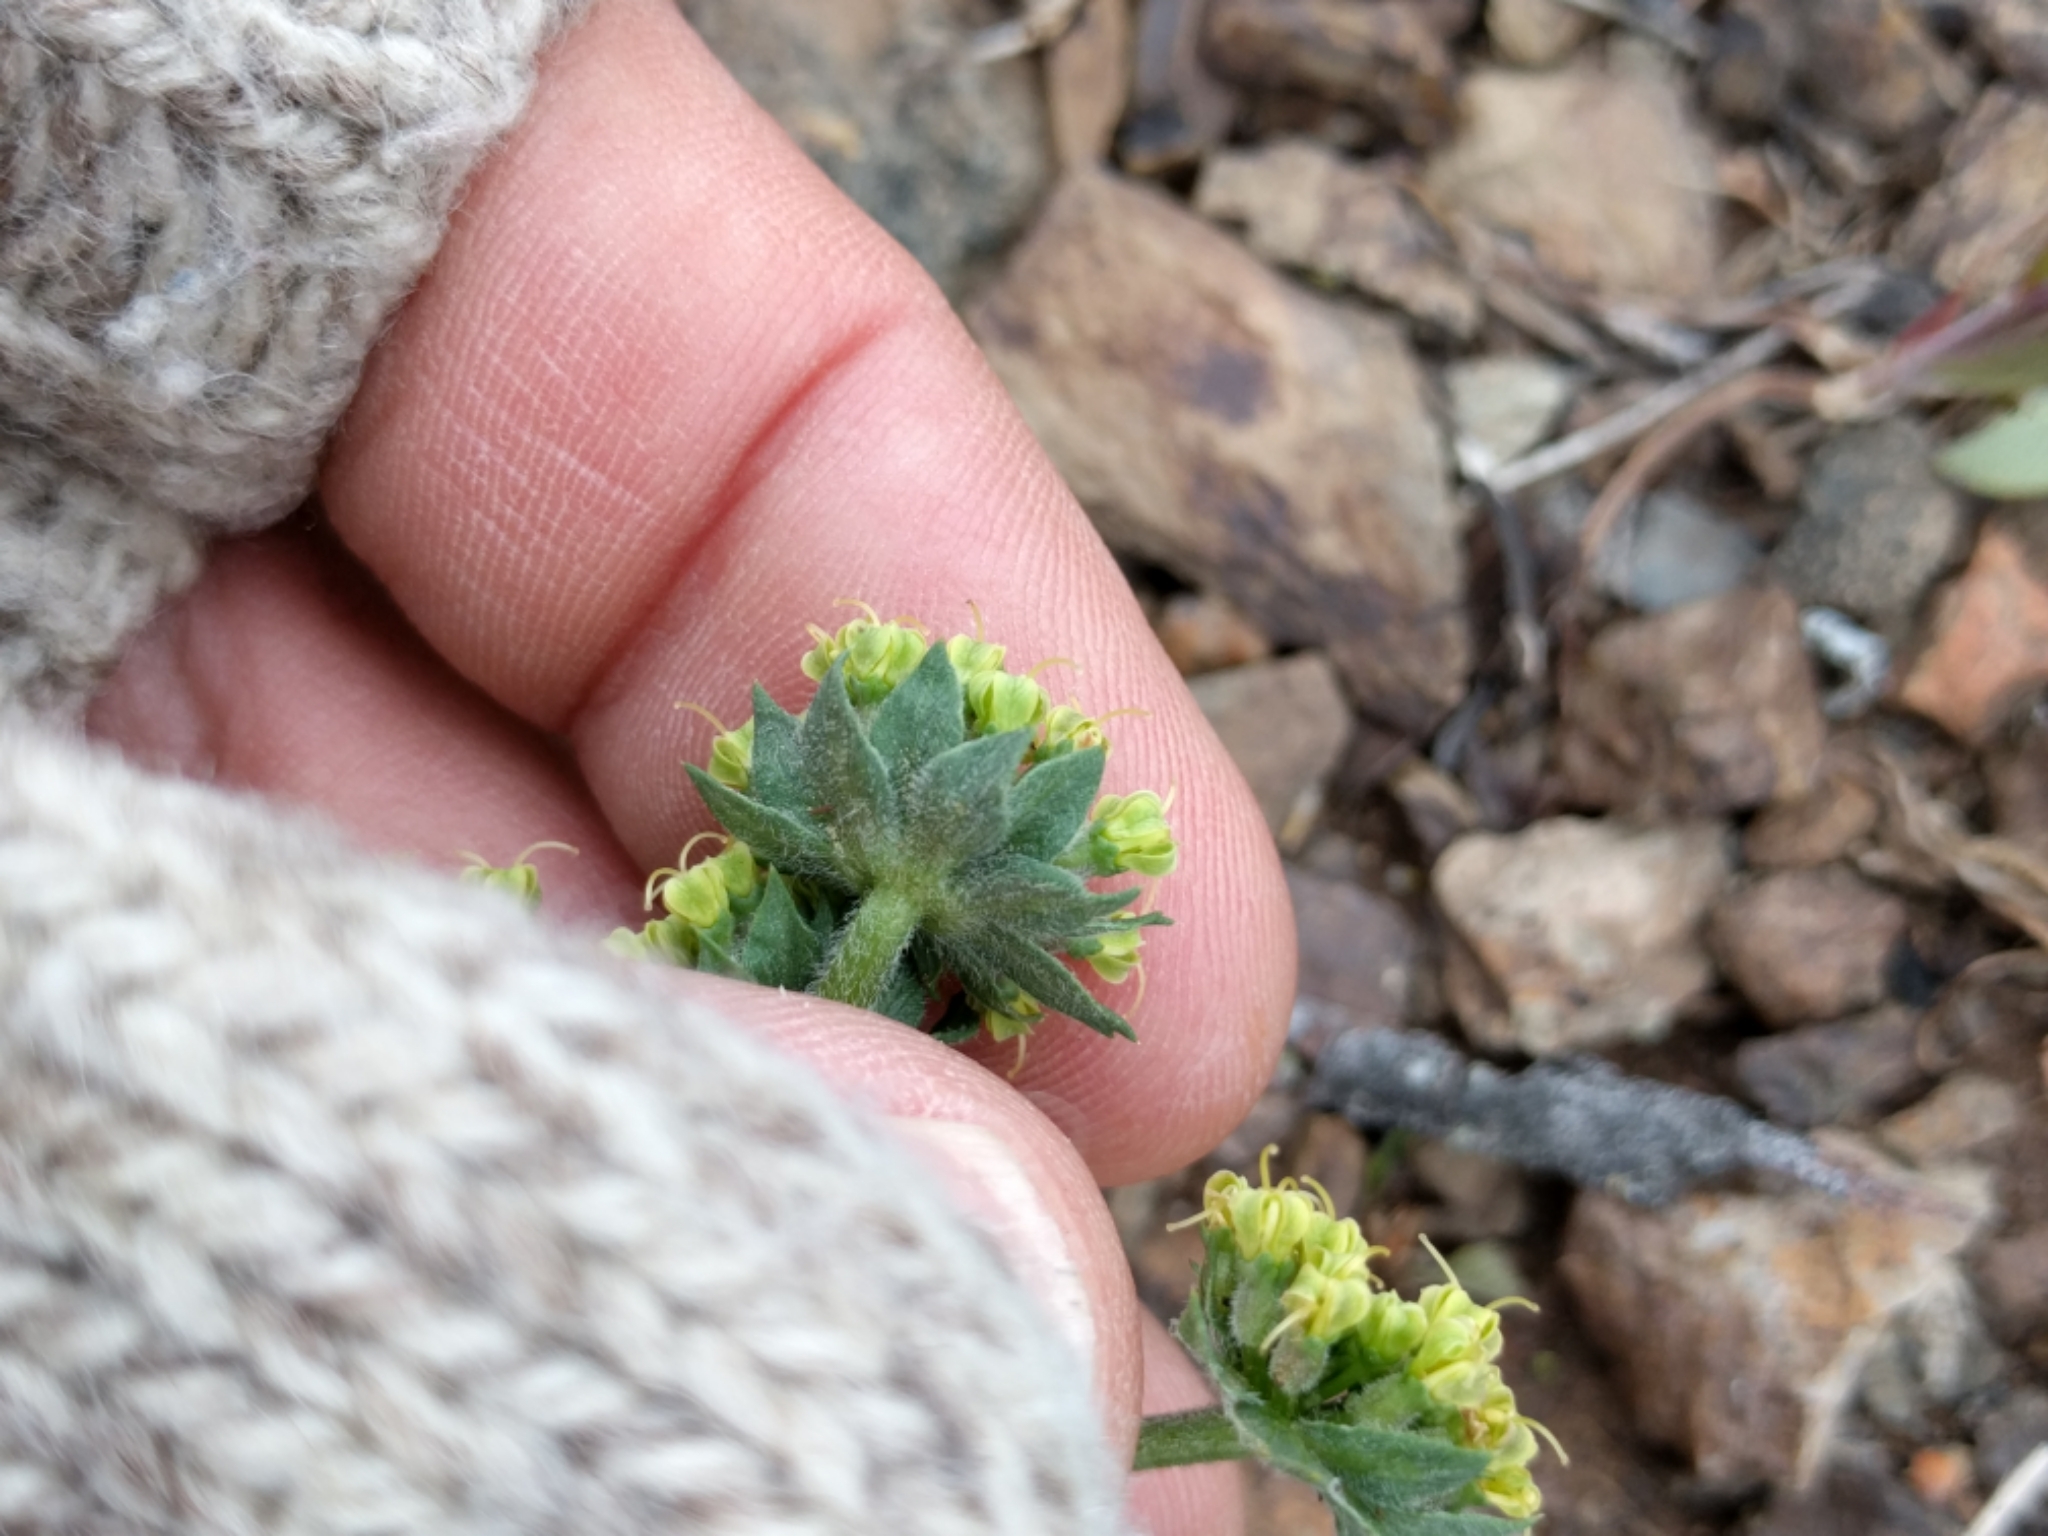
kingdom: Plantae
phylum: Tracheophyta
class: Magnoliopsida
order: Apiales
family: Apiaceae
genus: Lomatium
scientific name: Lomatium macrocarpum
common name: Big-seed biscuitroot
